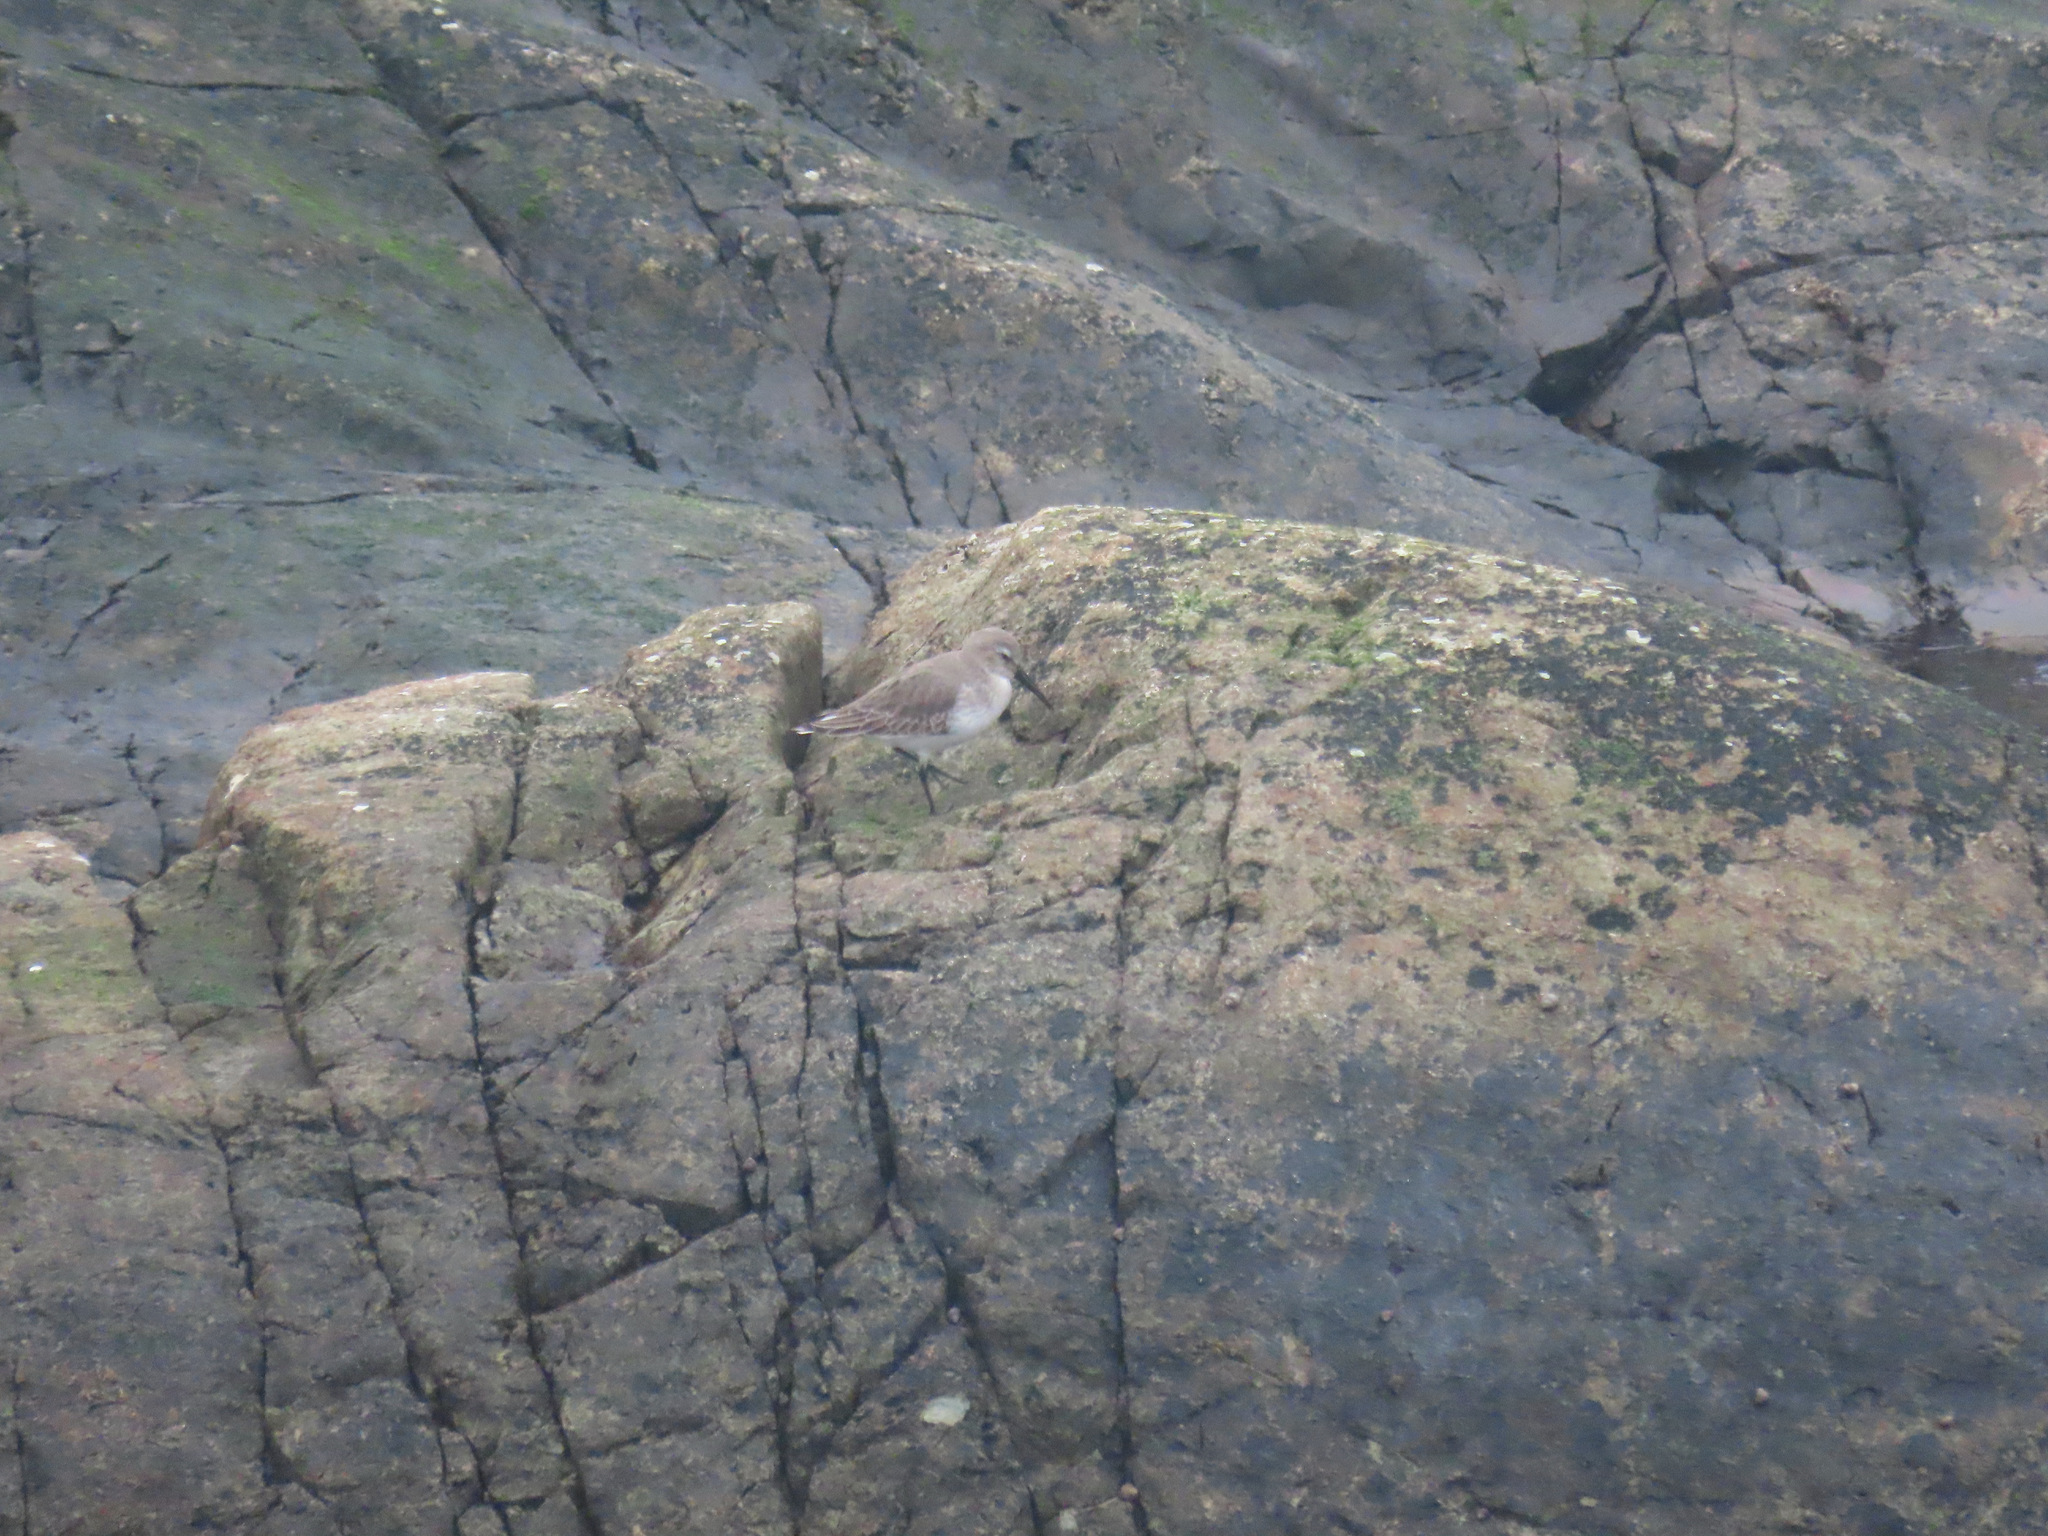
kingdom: Animalia
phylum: Chordata
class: Aves
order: Charadriiformes
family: Scolopacidae
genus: Calidris
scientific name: Calidris alpina
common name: Dunlin
